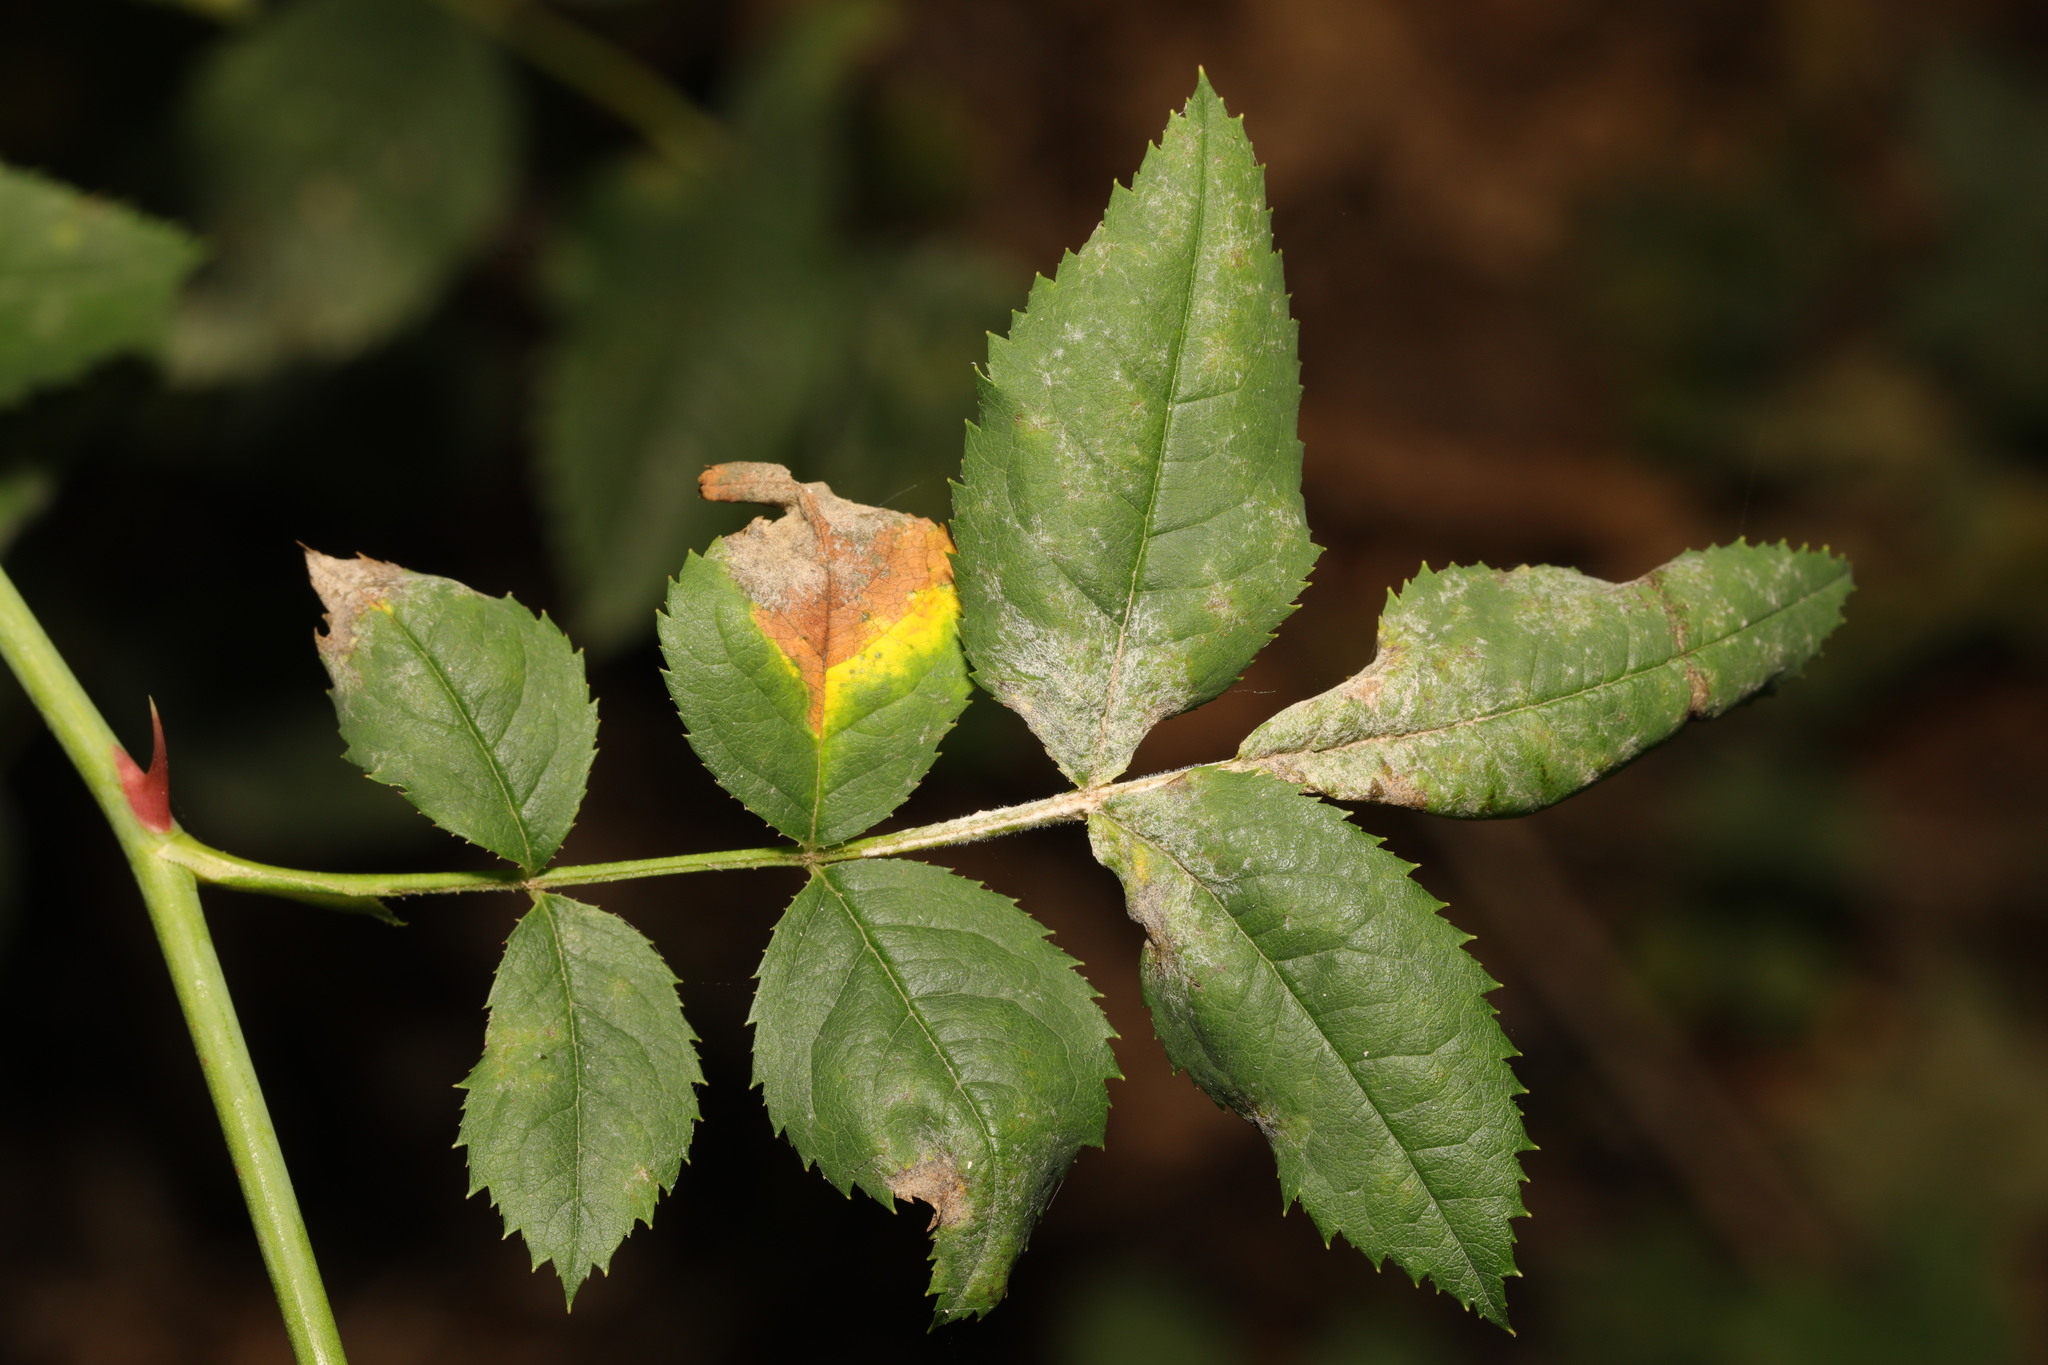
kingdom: Fungi
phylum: Ascomycota
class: Leotiomycetes
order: Helotiales
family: Erysiphaceae
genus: Podosphaera
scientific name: Podosphaera pannosa
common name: Rose mildew
